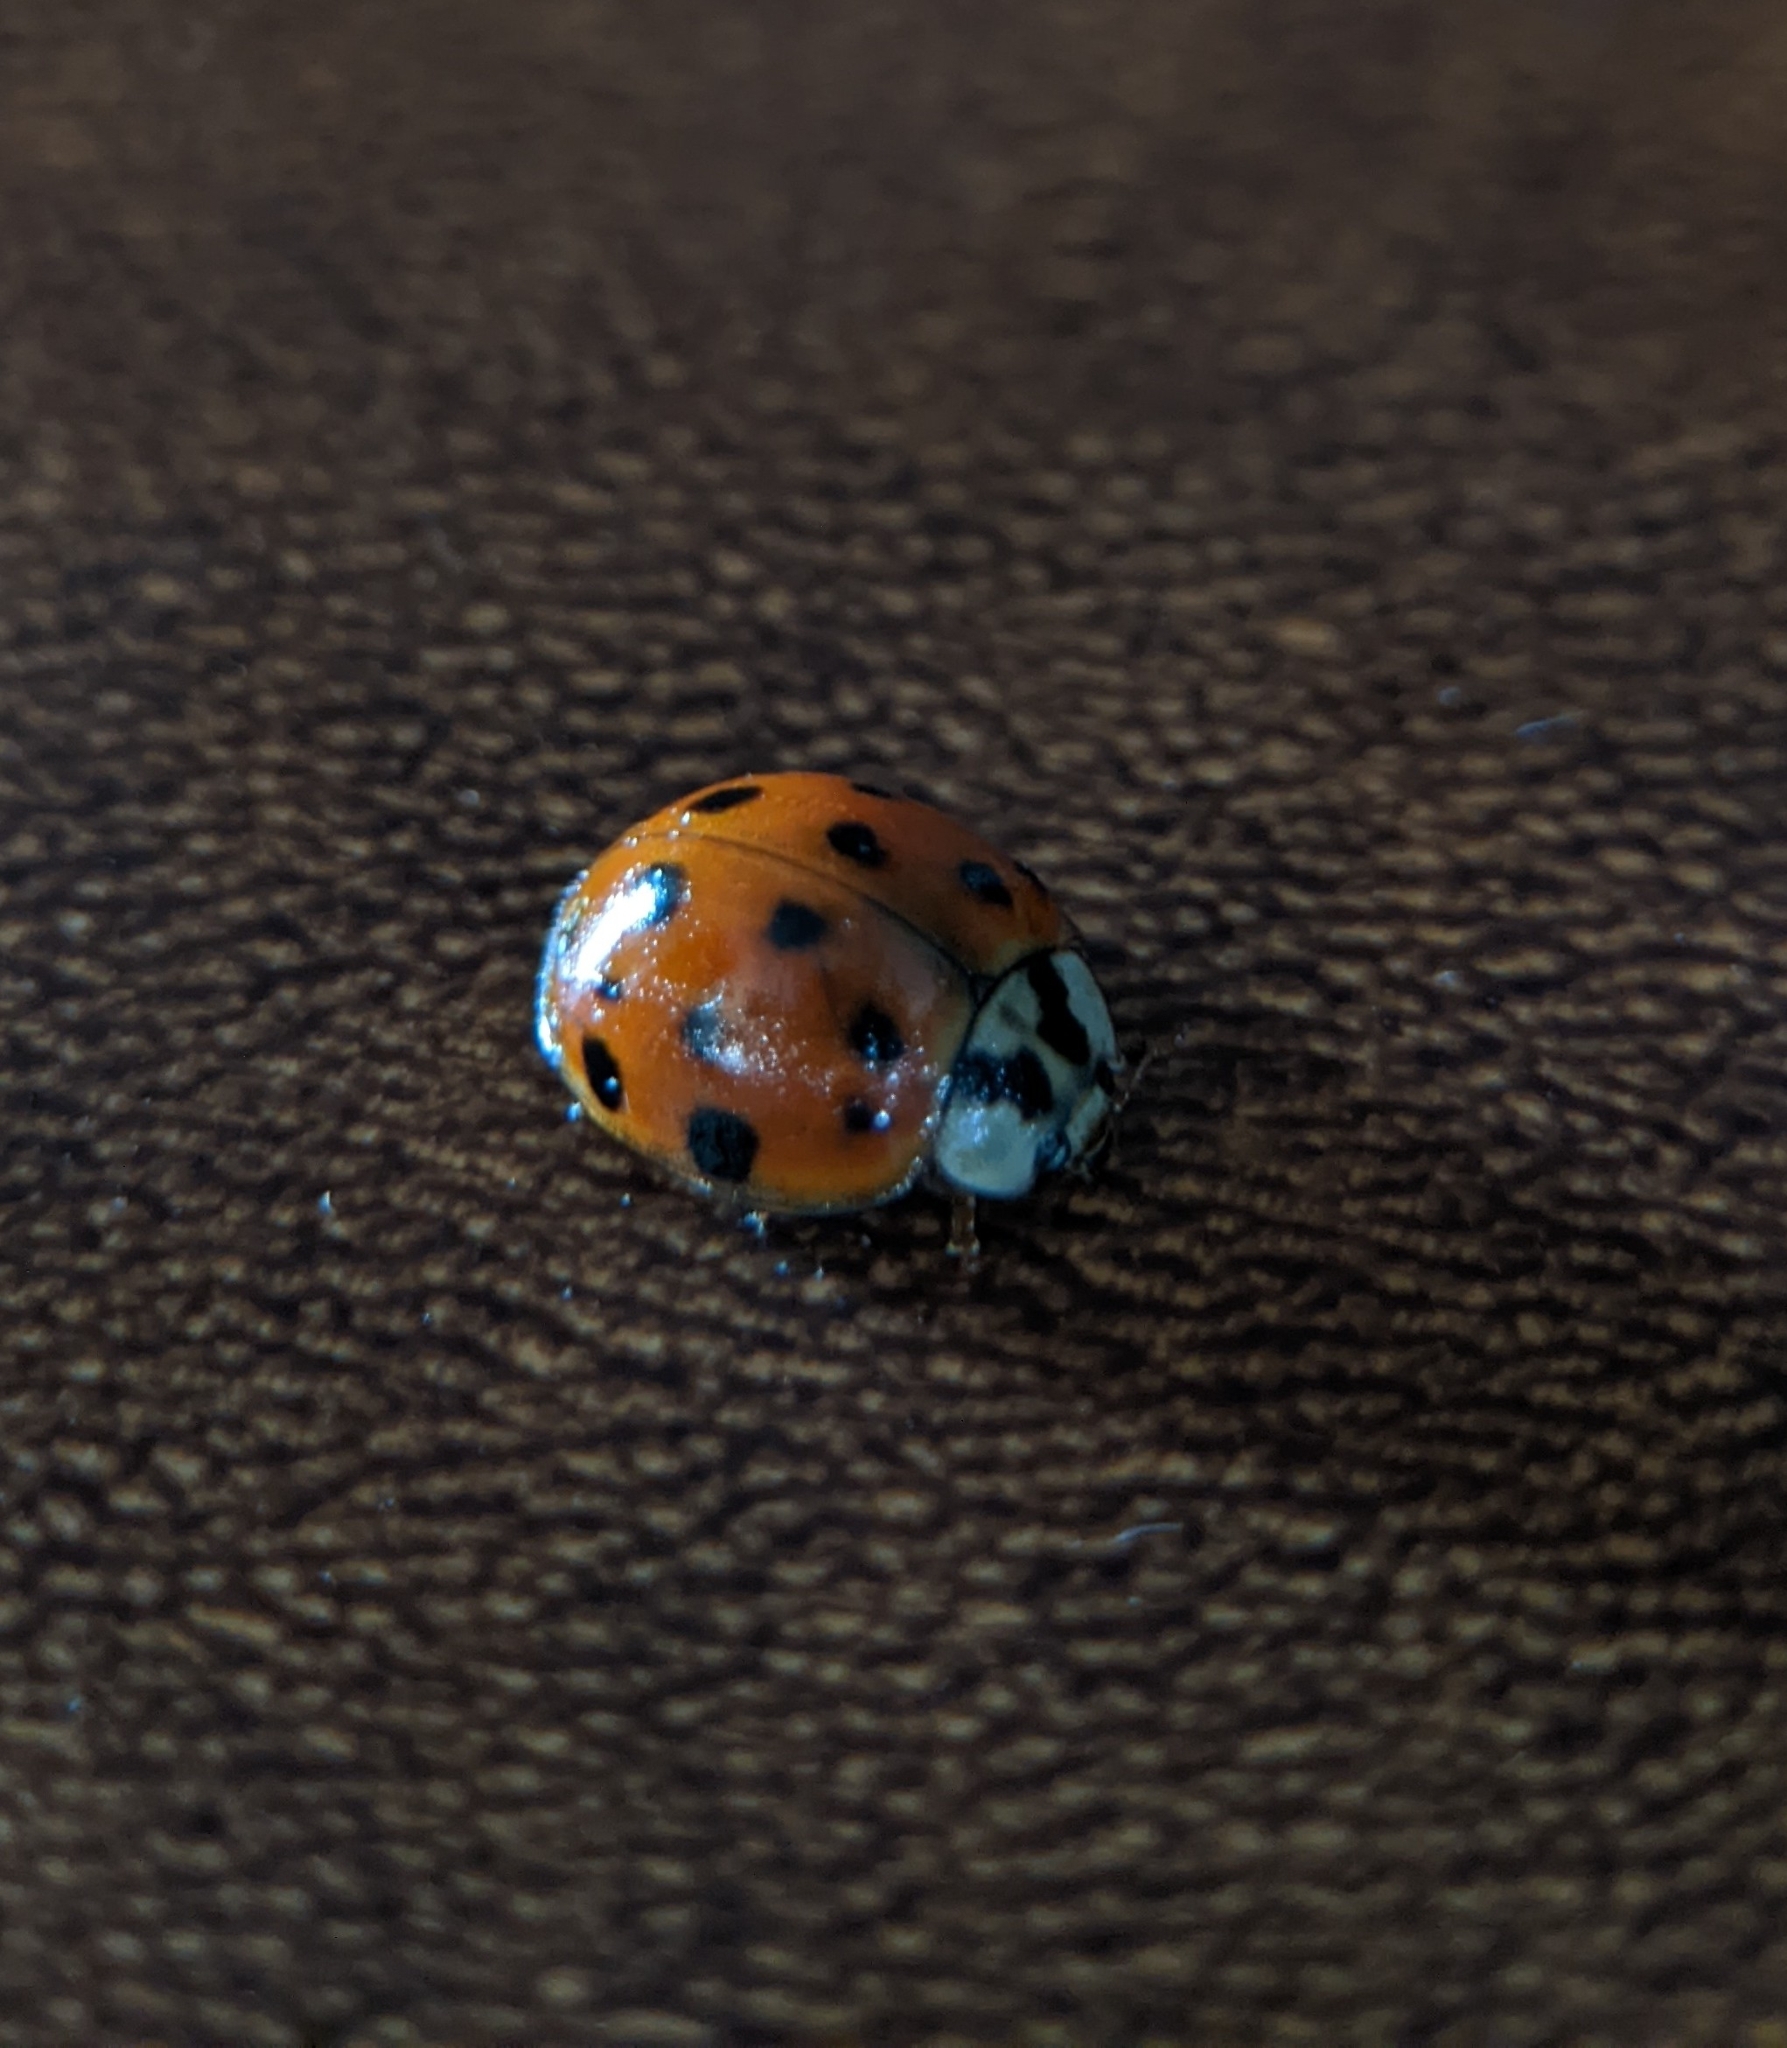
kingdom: Animalia
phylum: Arthropoda
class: Insecta
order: Coleoptera
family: Coccinellidae
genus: Harmonia
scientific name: Harmonia axyridis
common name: Harlequin ladybird
